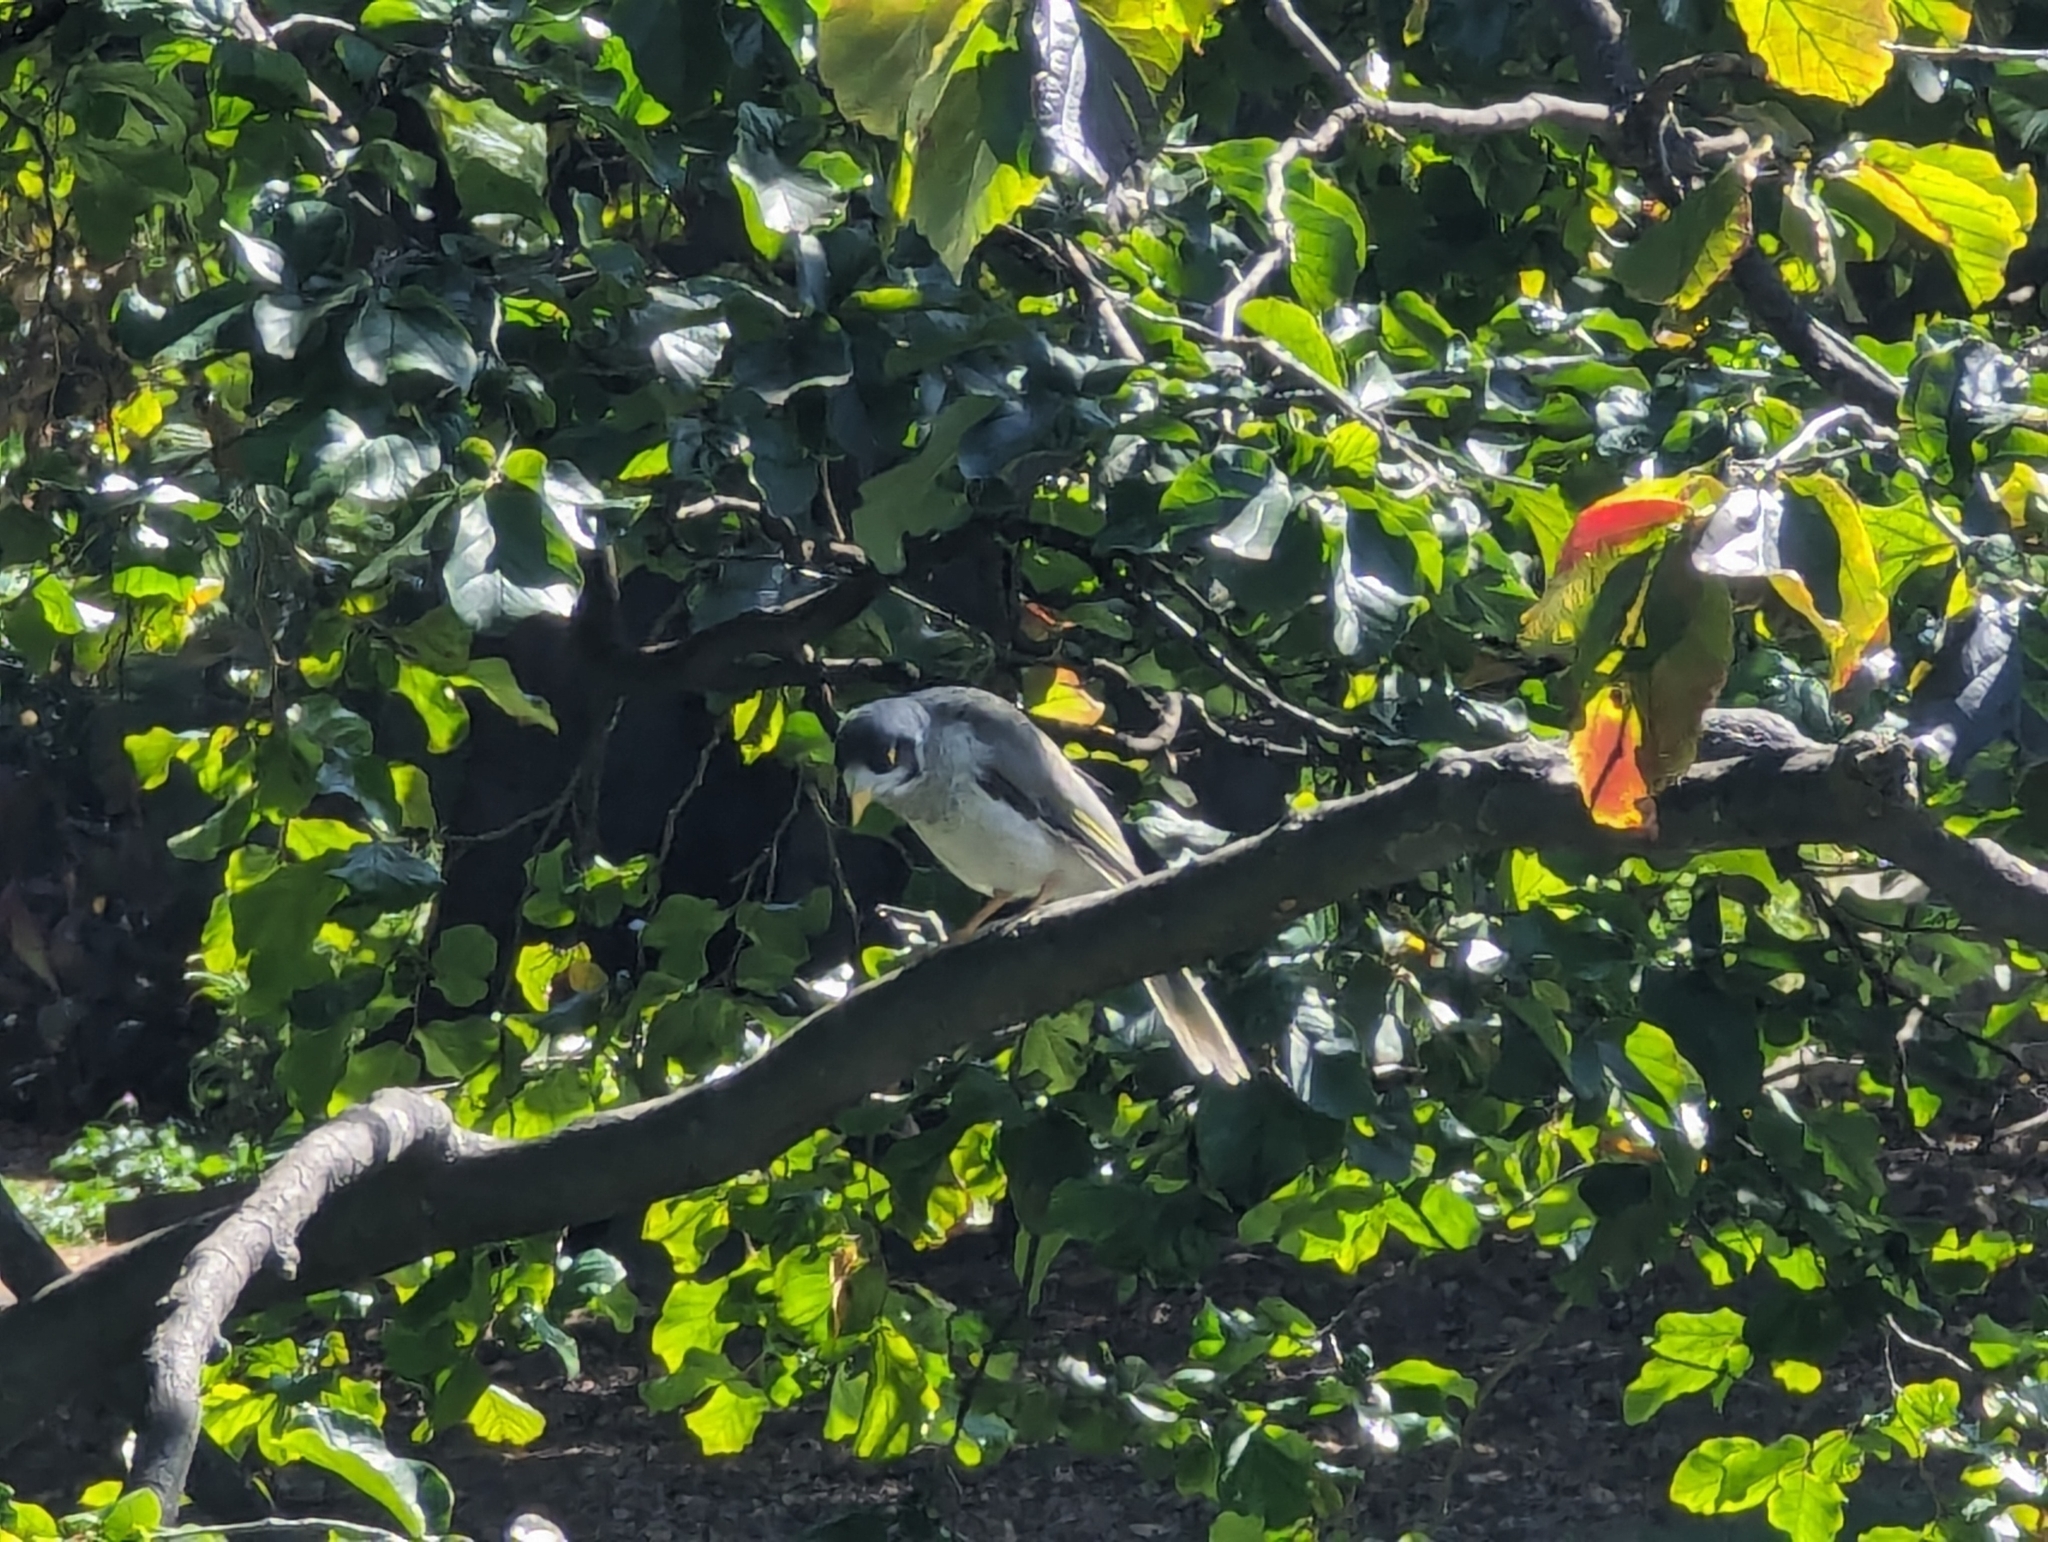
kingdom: Animalia
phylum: Chordata
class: Aves
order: Passeriformes
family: Meliphagidae
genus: Manorina
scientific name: Manorina melanocephala
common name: Noisy miner
